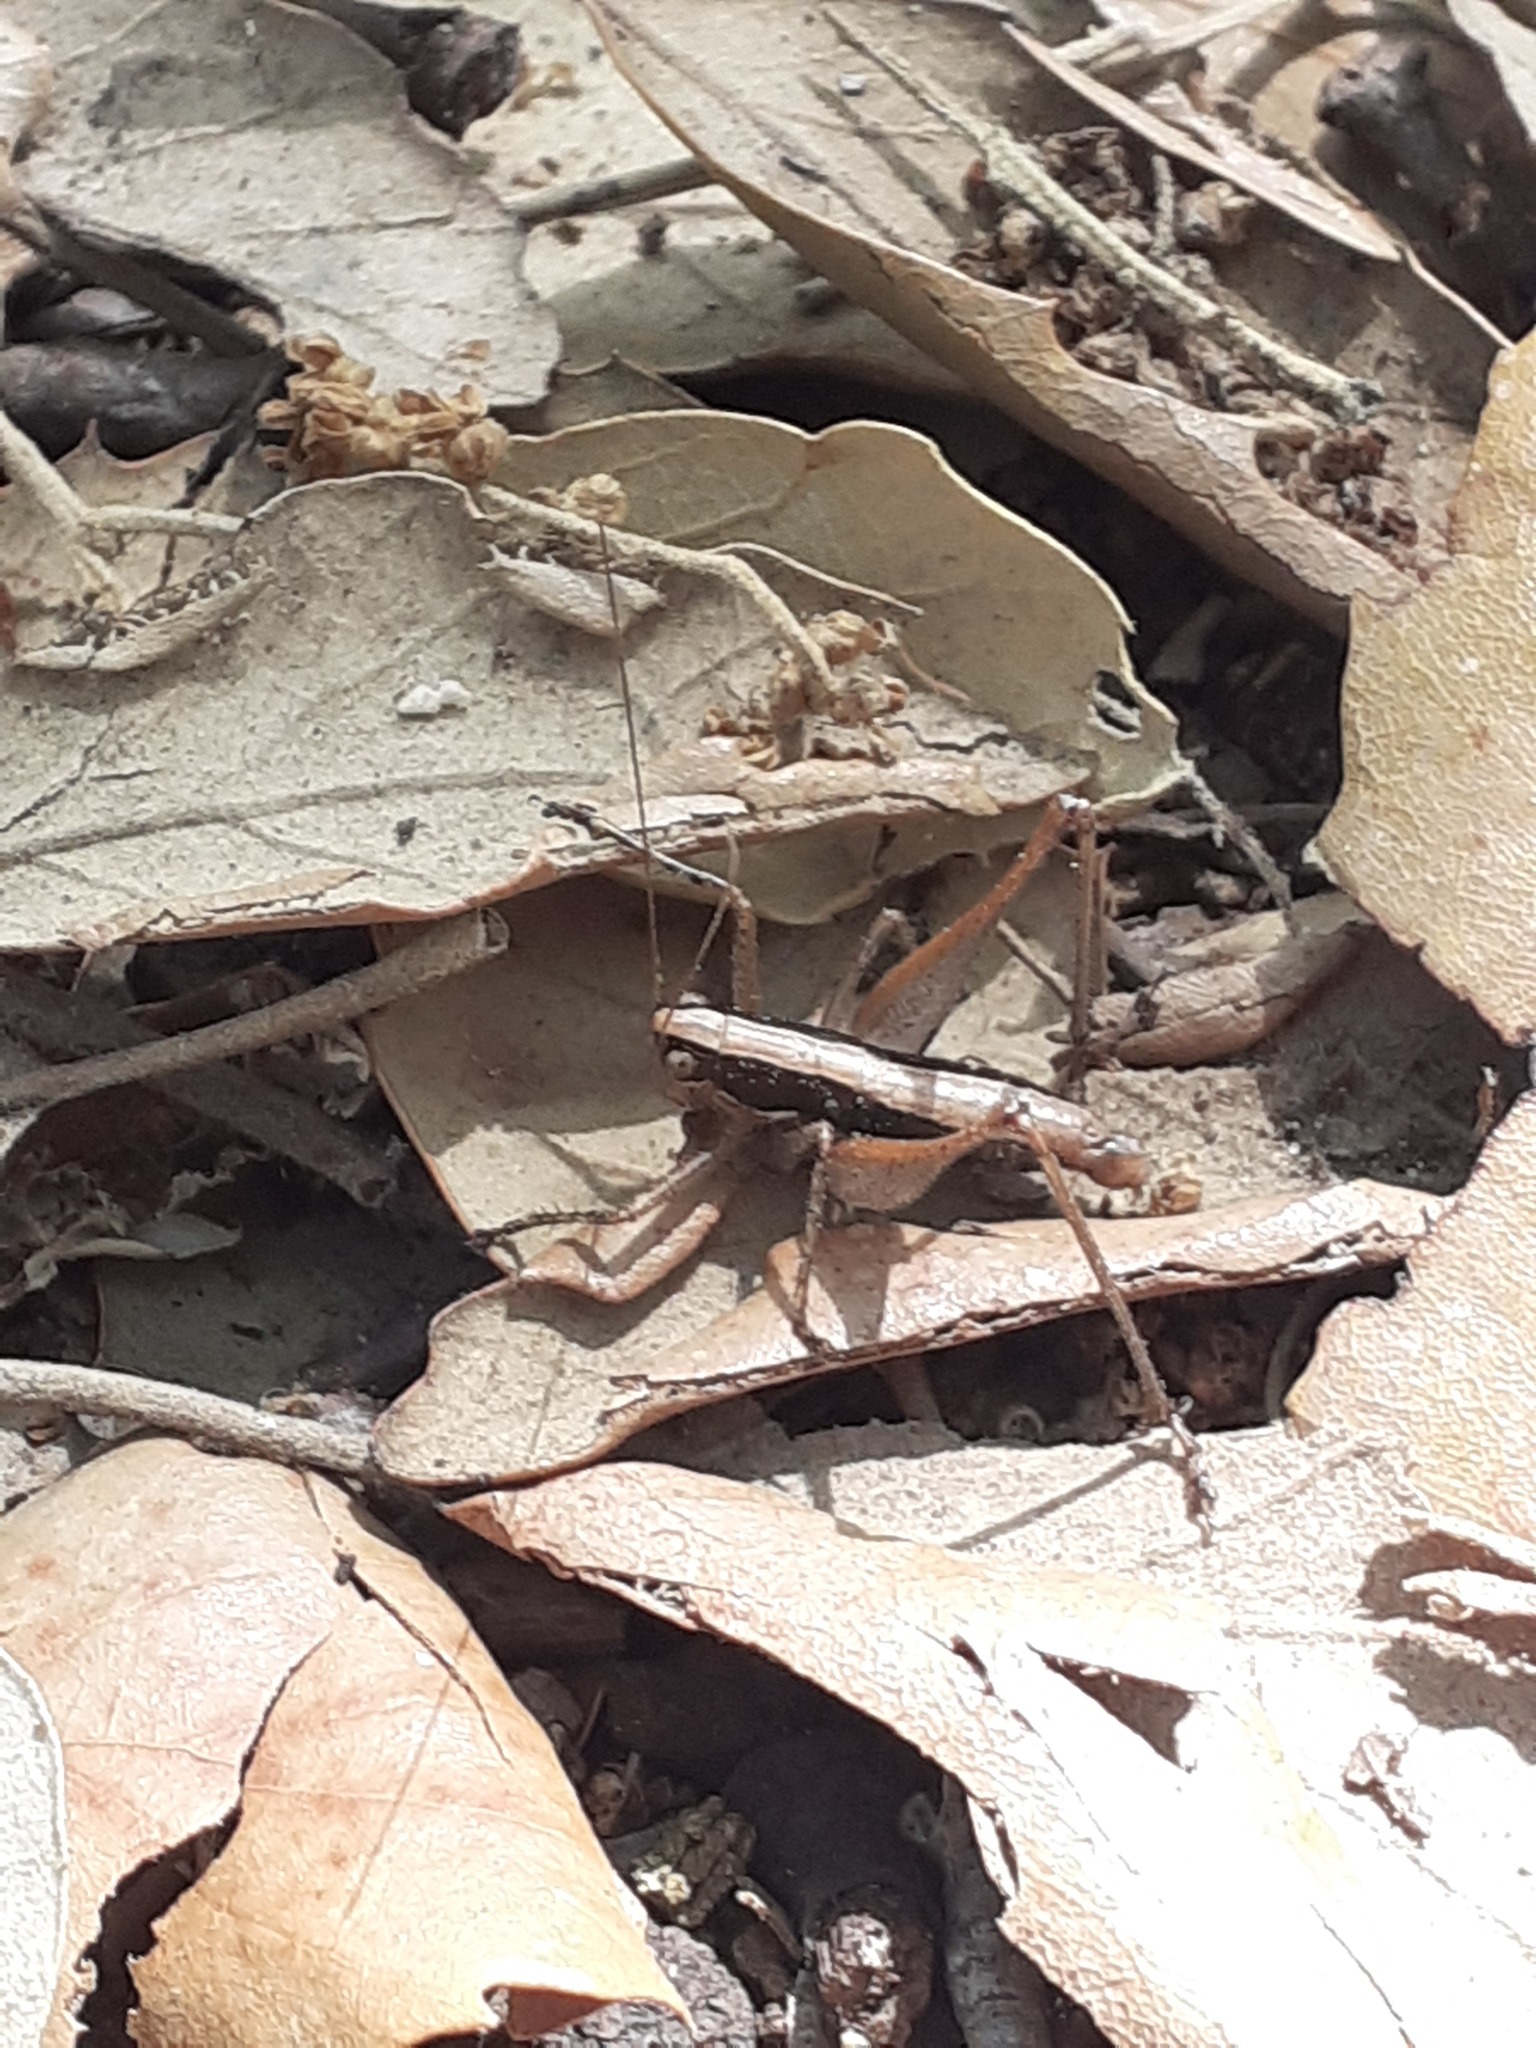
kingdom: Animalia
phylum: Arthropoda
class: Insecta
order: Orthoptera
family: Tettigoniidae
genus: Yersinella
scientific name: Yersinella raymondii
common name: Raymond's bush-cricket
